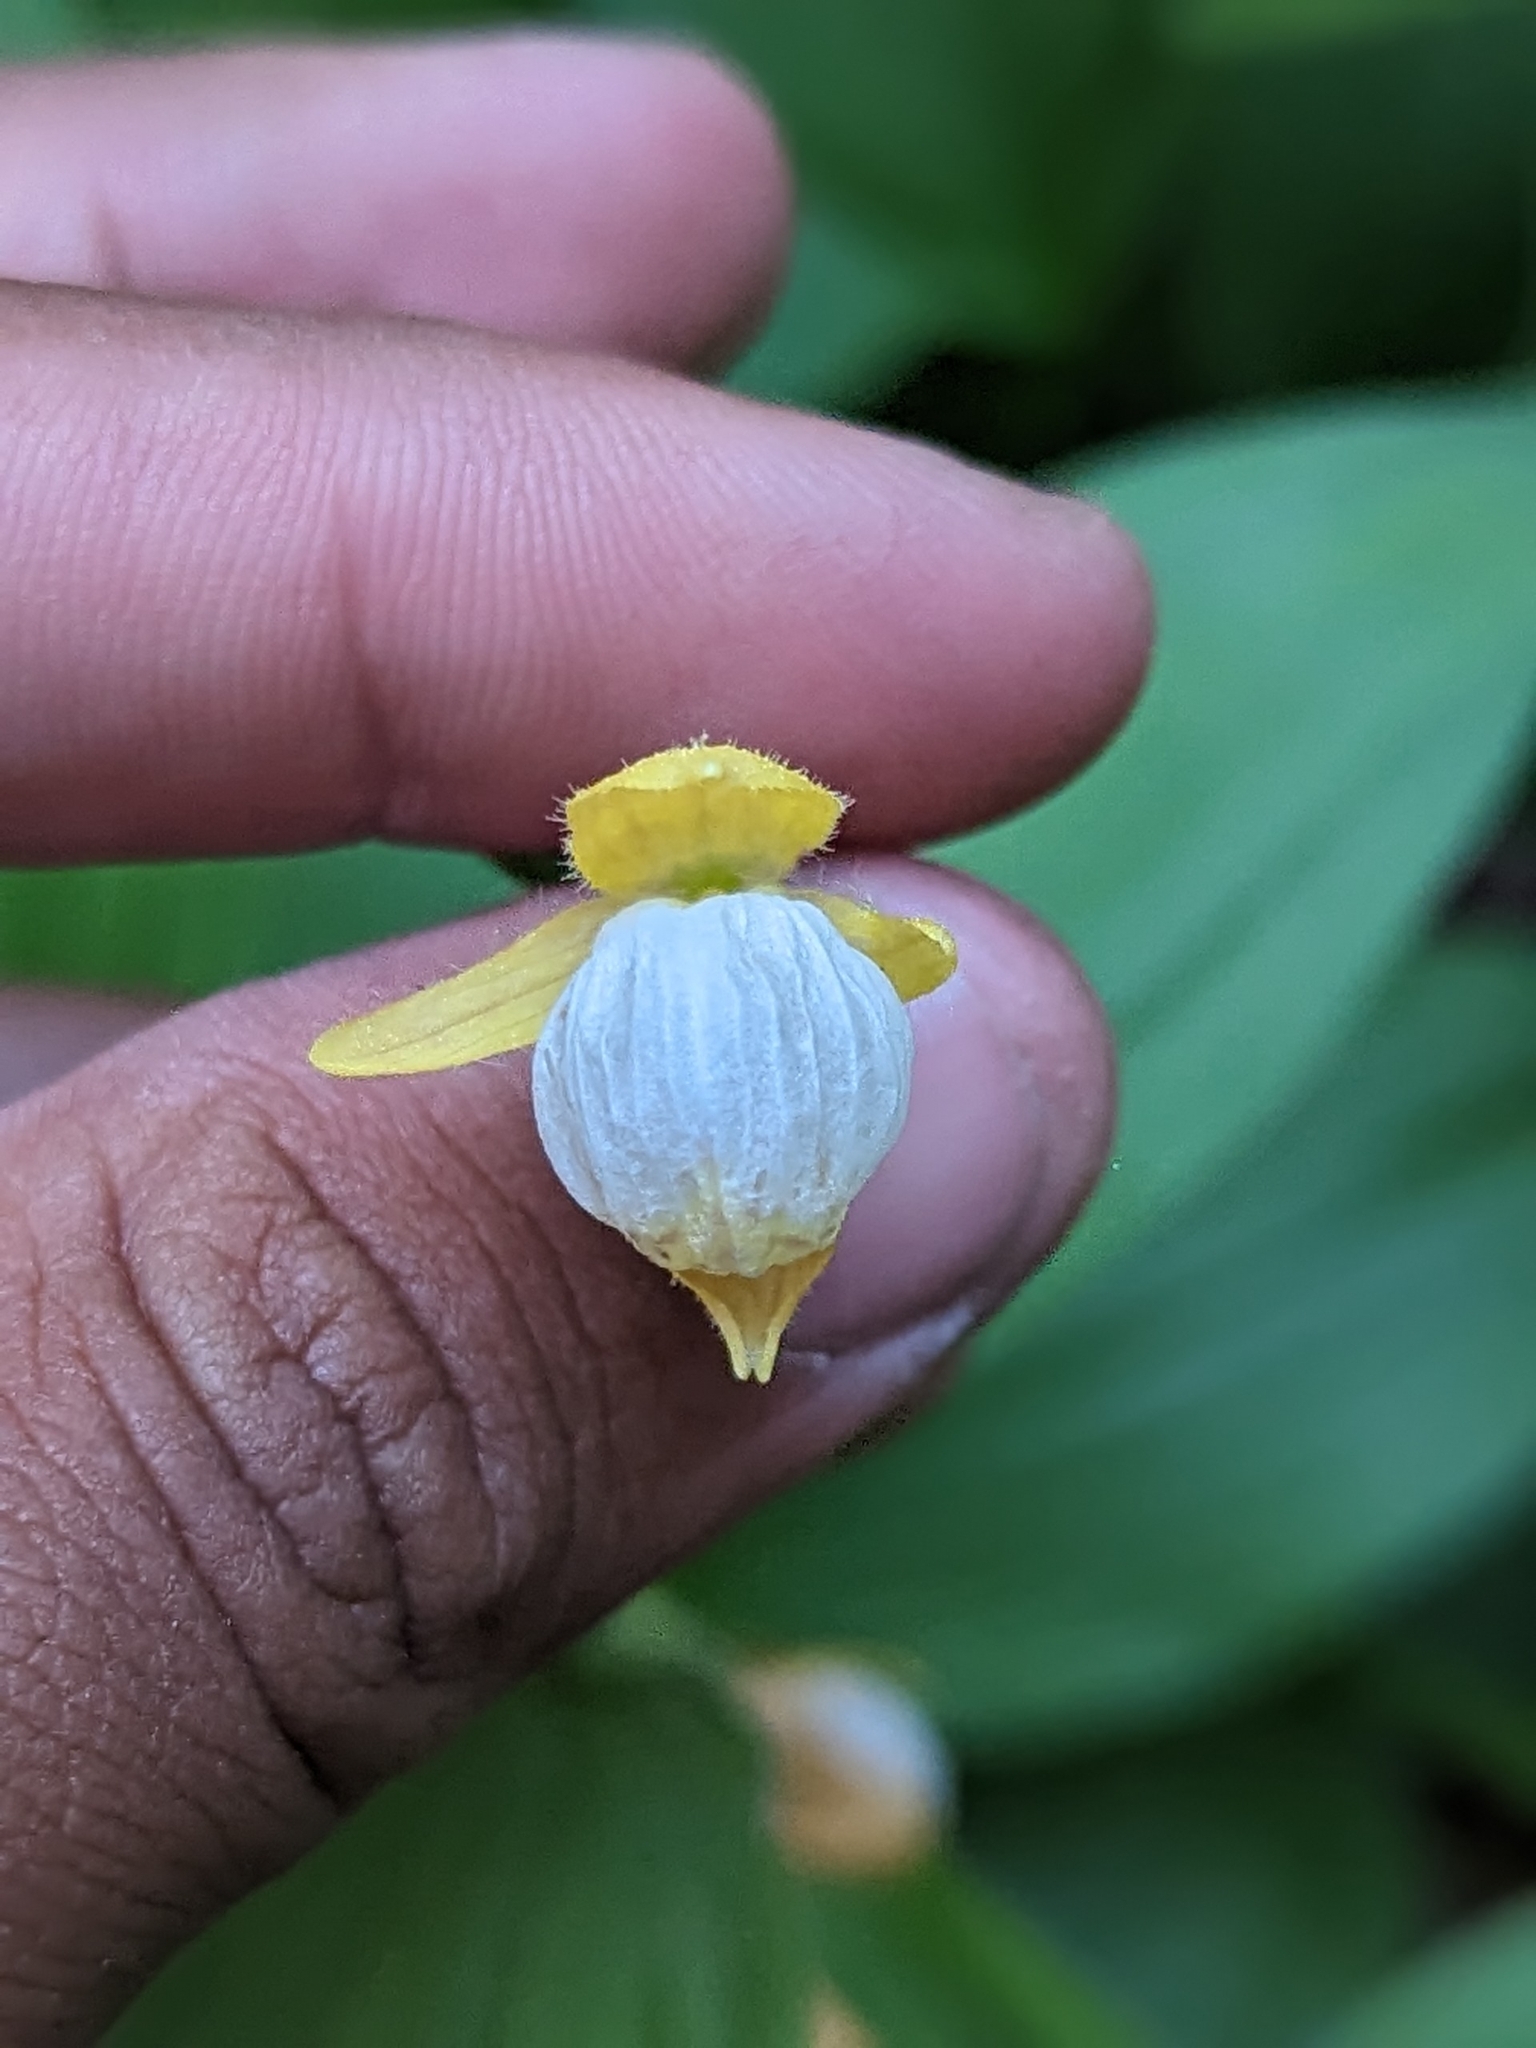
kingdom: Plantae
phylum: Tracheophyta
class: Liliopsida
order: Asparagales
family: Orchidaceae
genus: Cypripedium
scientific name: Cypripedium californicum
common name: California lady's slipper
